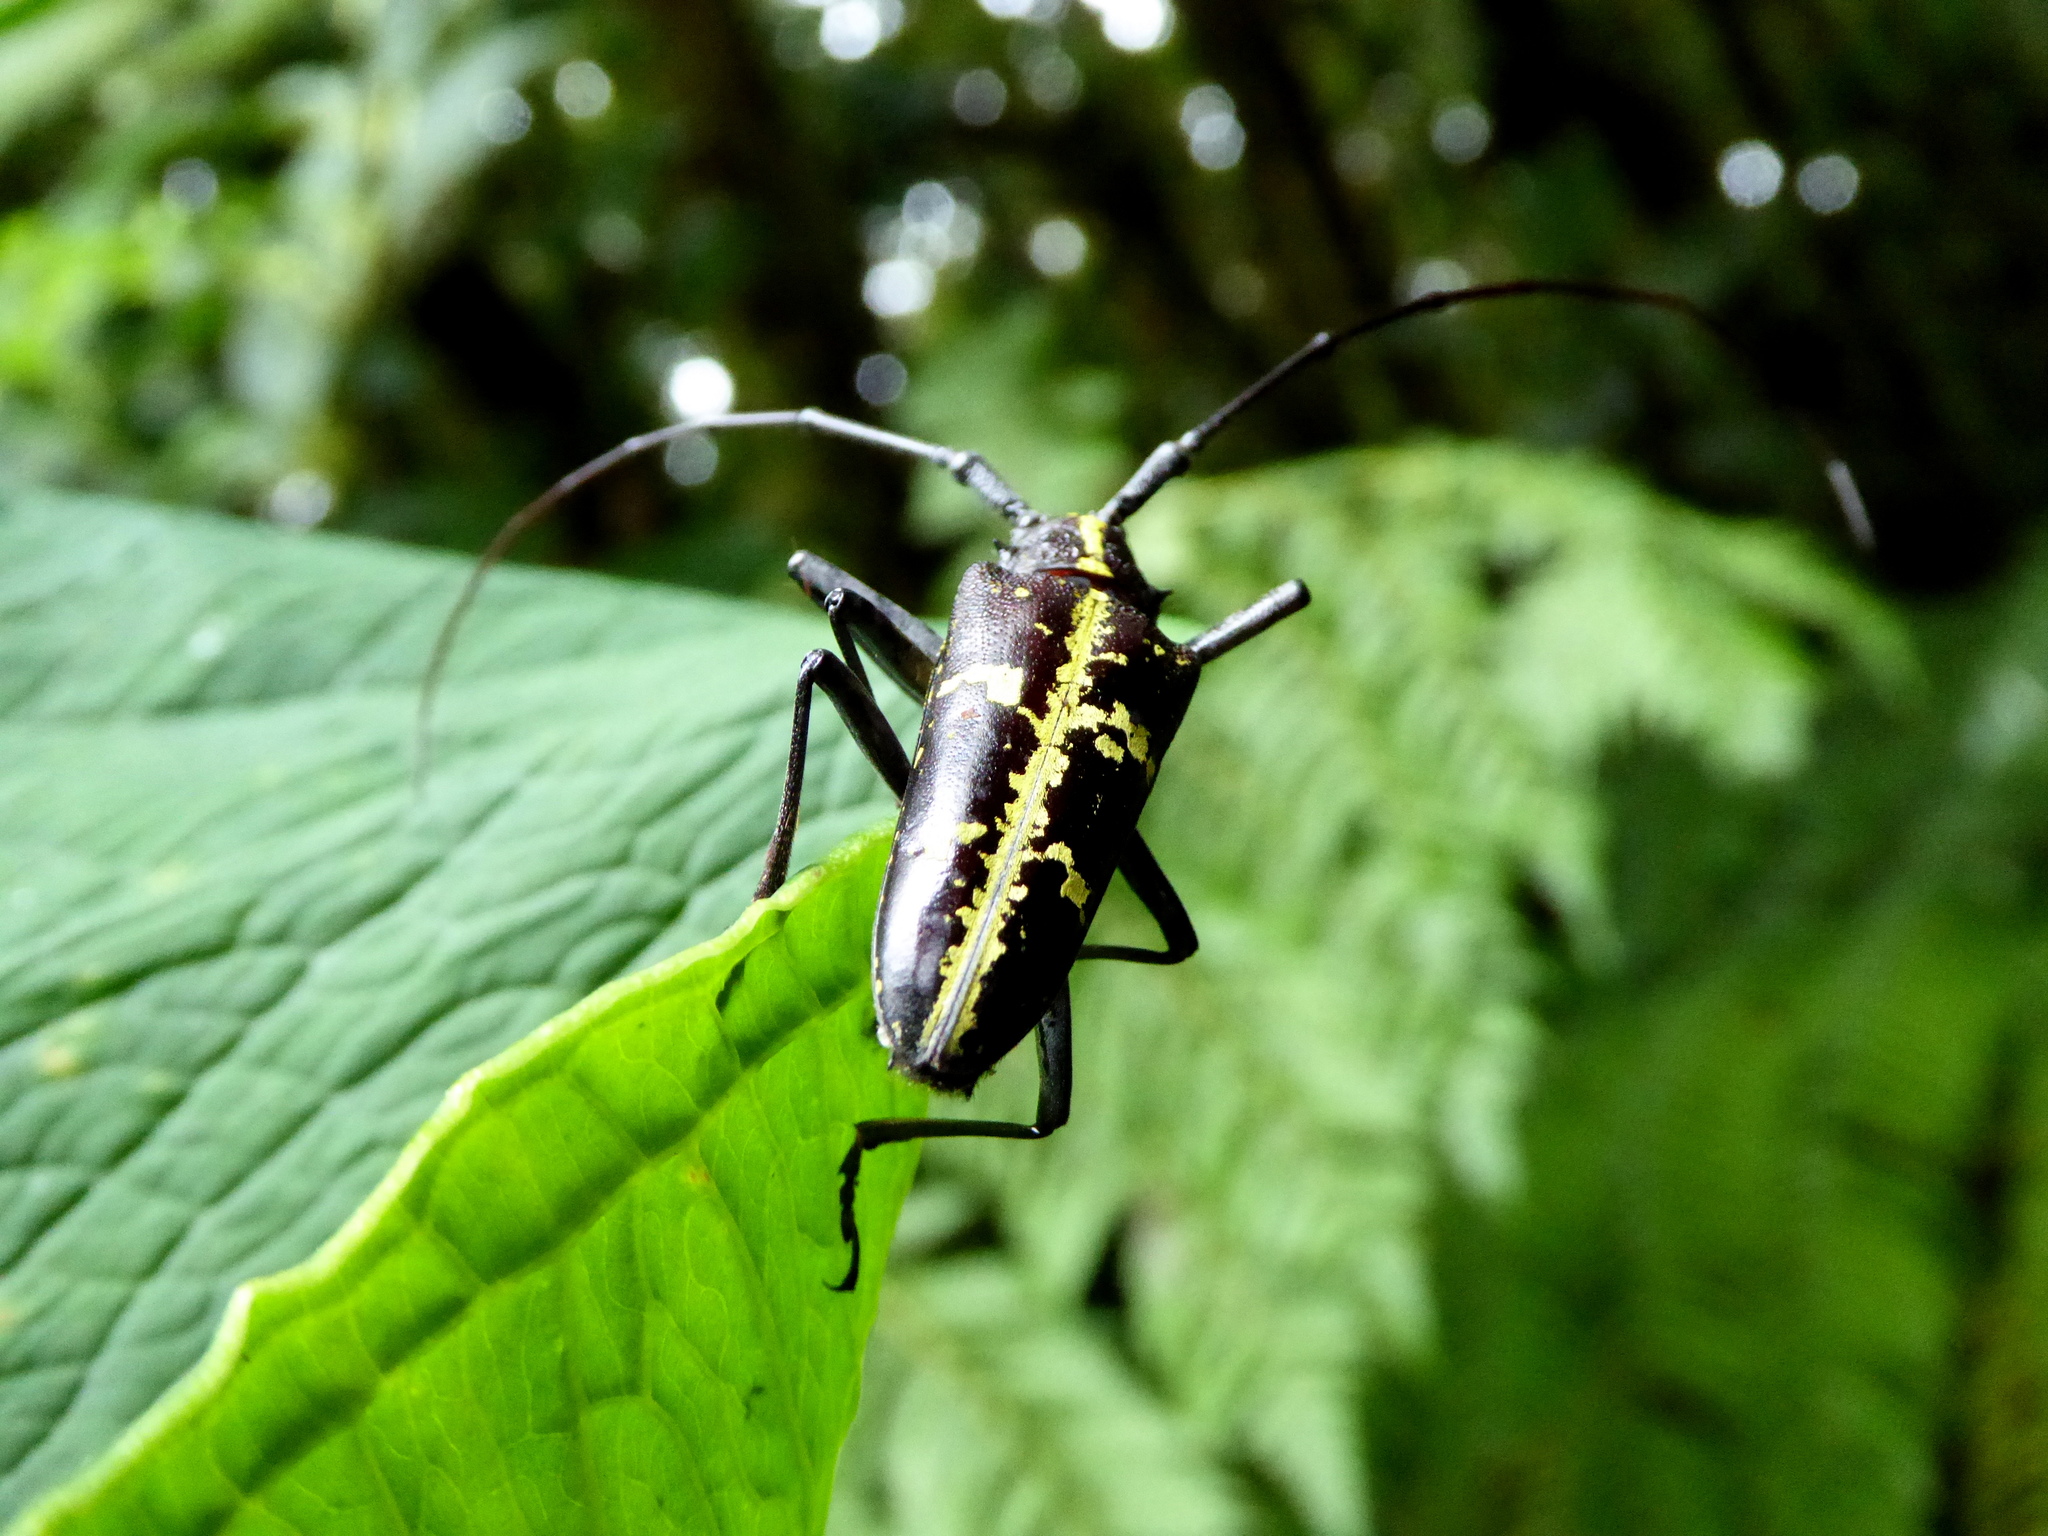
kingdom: Animalia
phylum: Arthropoda
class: Insecta
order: Coleoptera
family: Cerambycidae
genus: Taeniotes
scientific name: Taeniotes praeclarus
